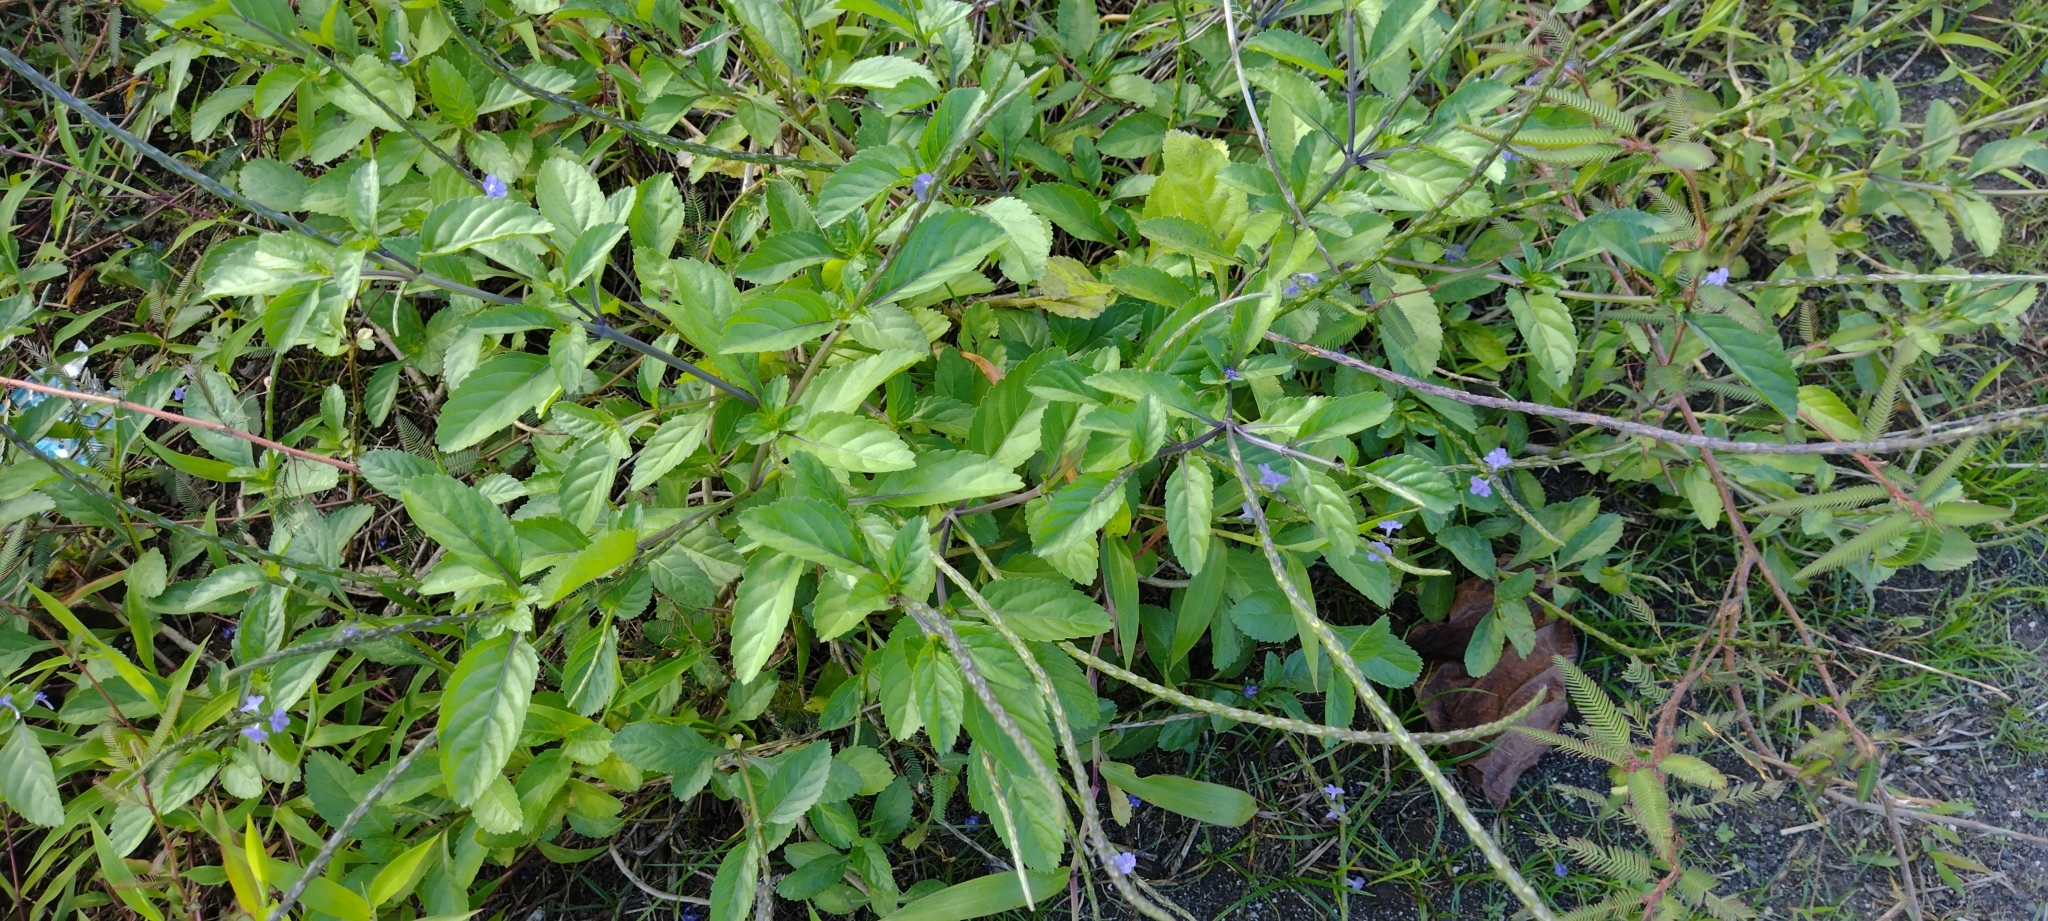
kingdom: Plantae
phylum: Tracheophyta
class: Magnoliopsida
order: Lamiales
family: Verbenaceae
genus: Stachytarpheta
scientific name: Stachytarpheta jamaicensis
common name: Light-blue snakeweed
